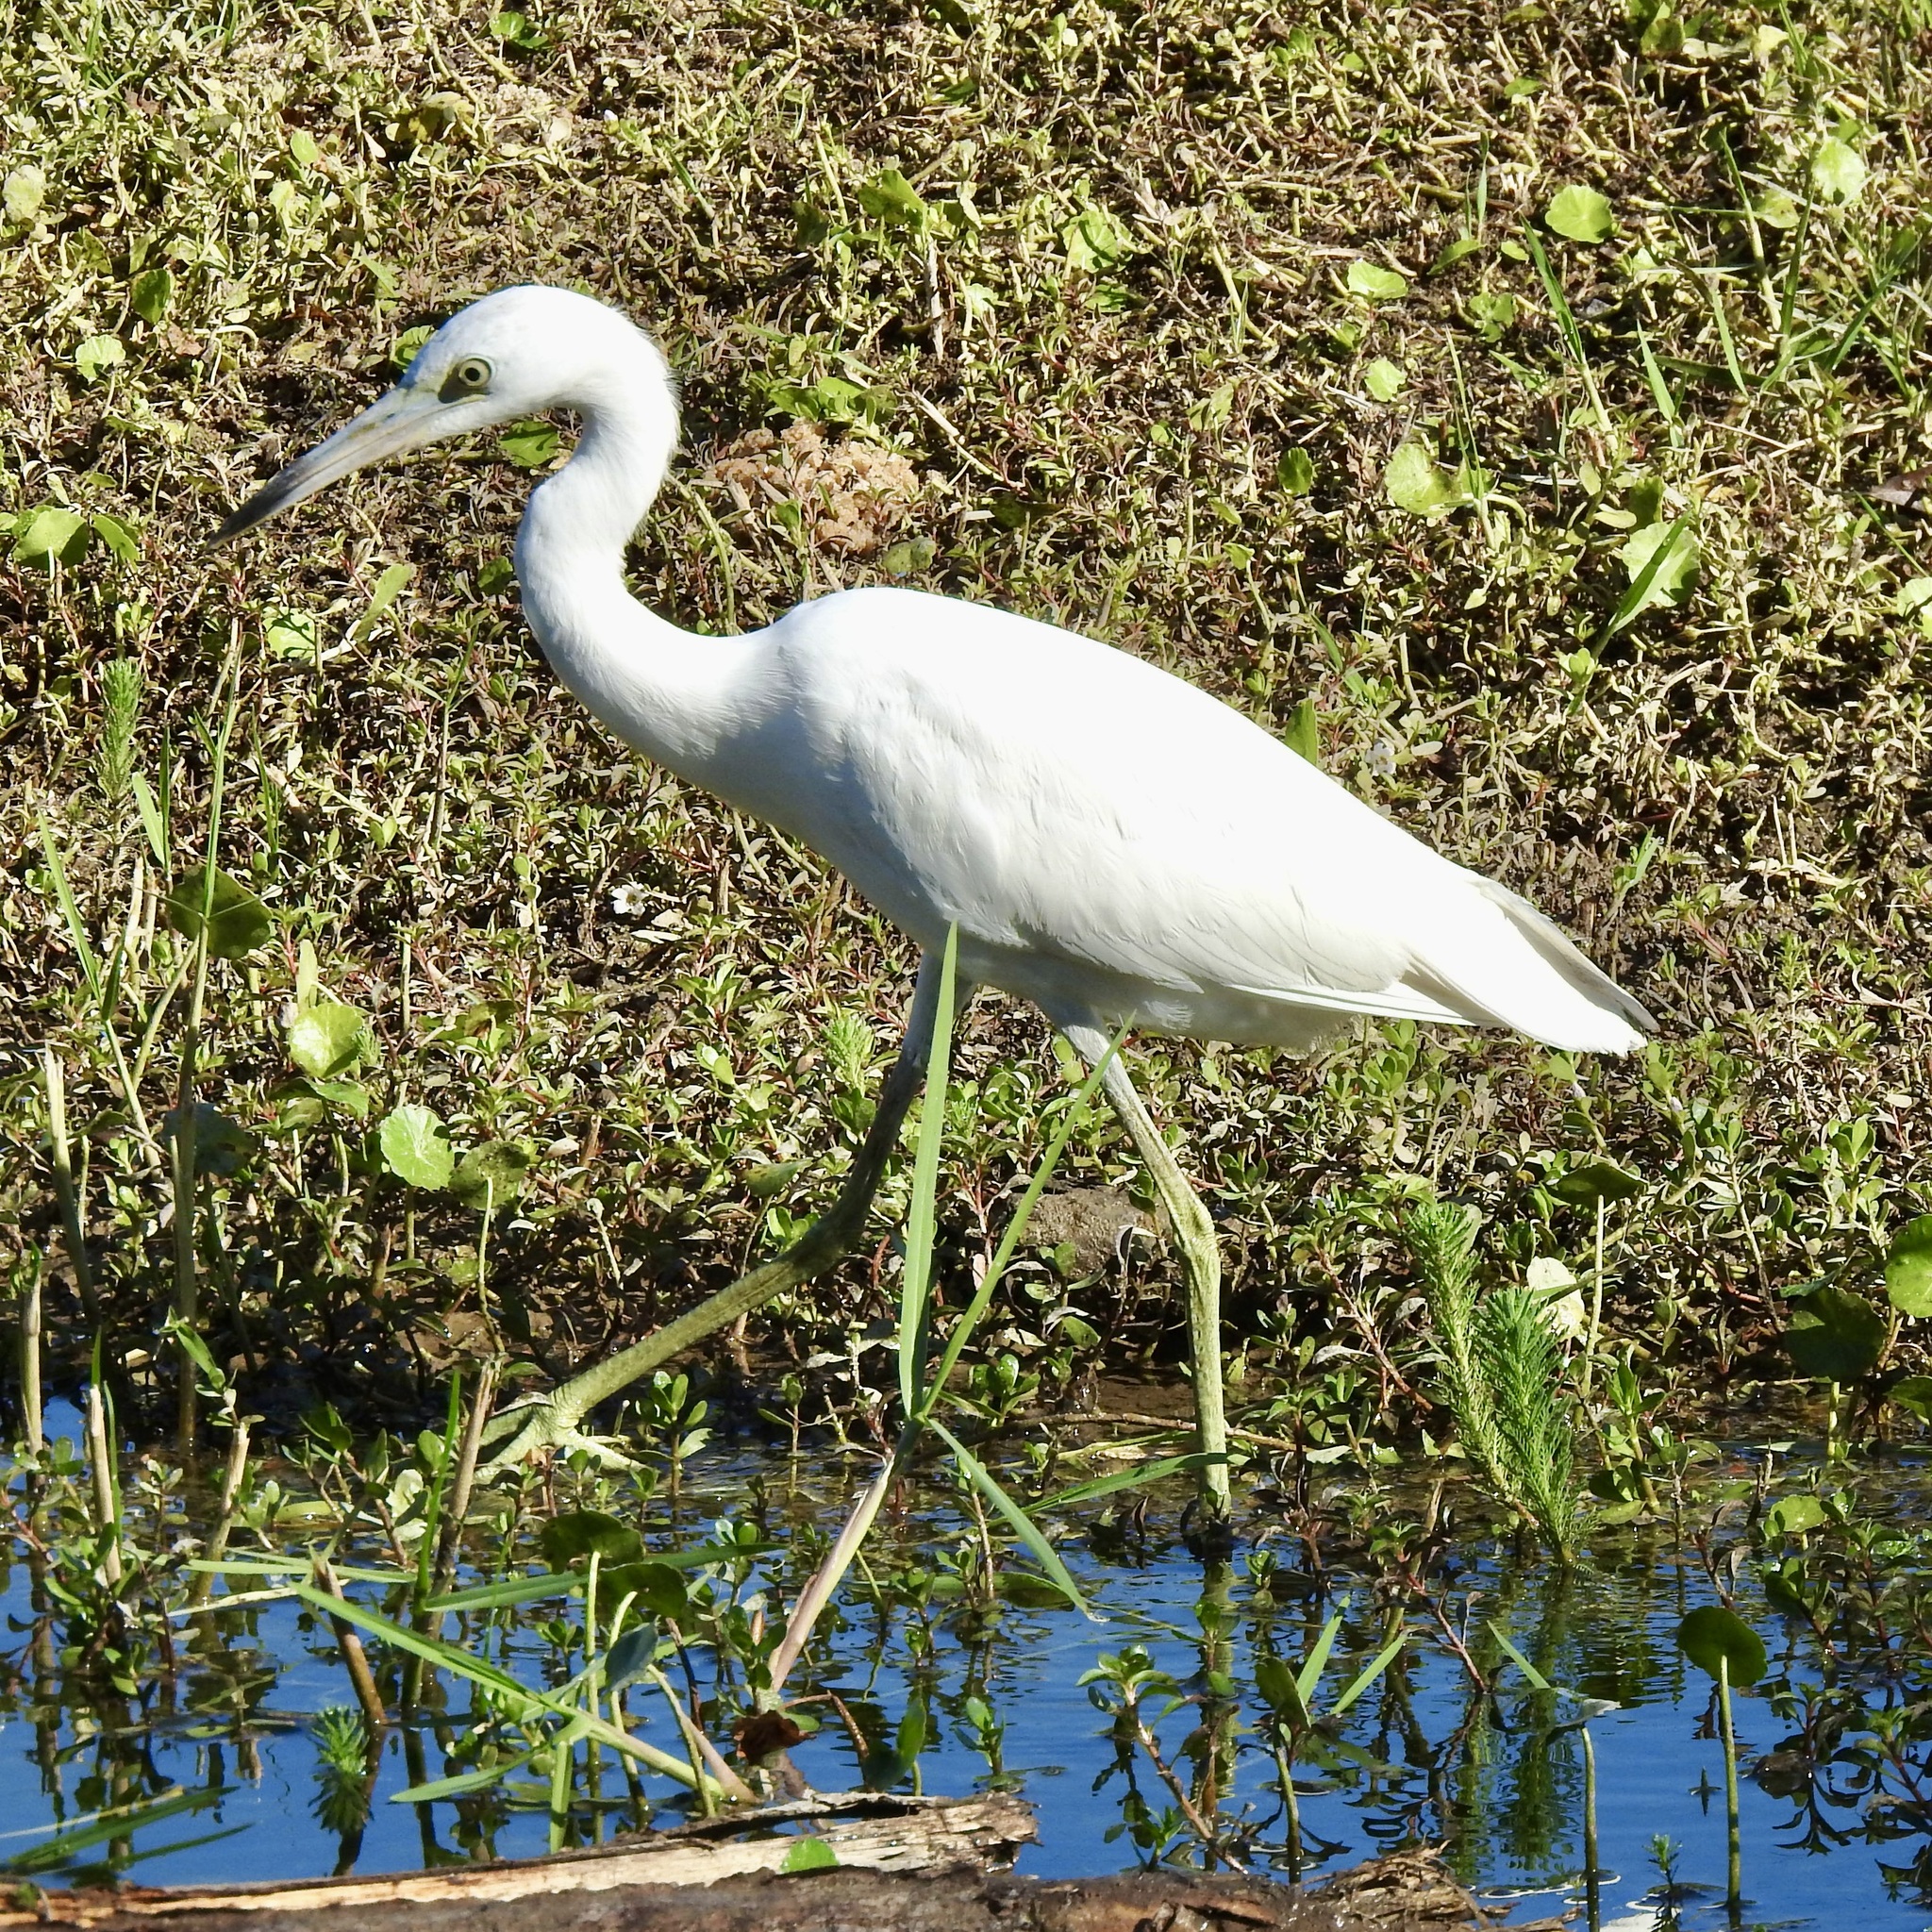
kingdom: Animalia
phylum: Chordata
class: Aves
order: Pelecaniformes
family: Ardeidae
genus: Egretta
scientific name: Egretta caerulea
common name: Little blue heron
